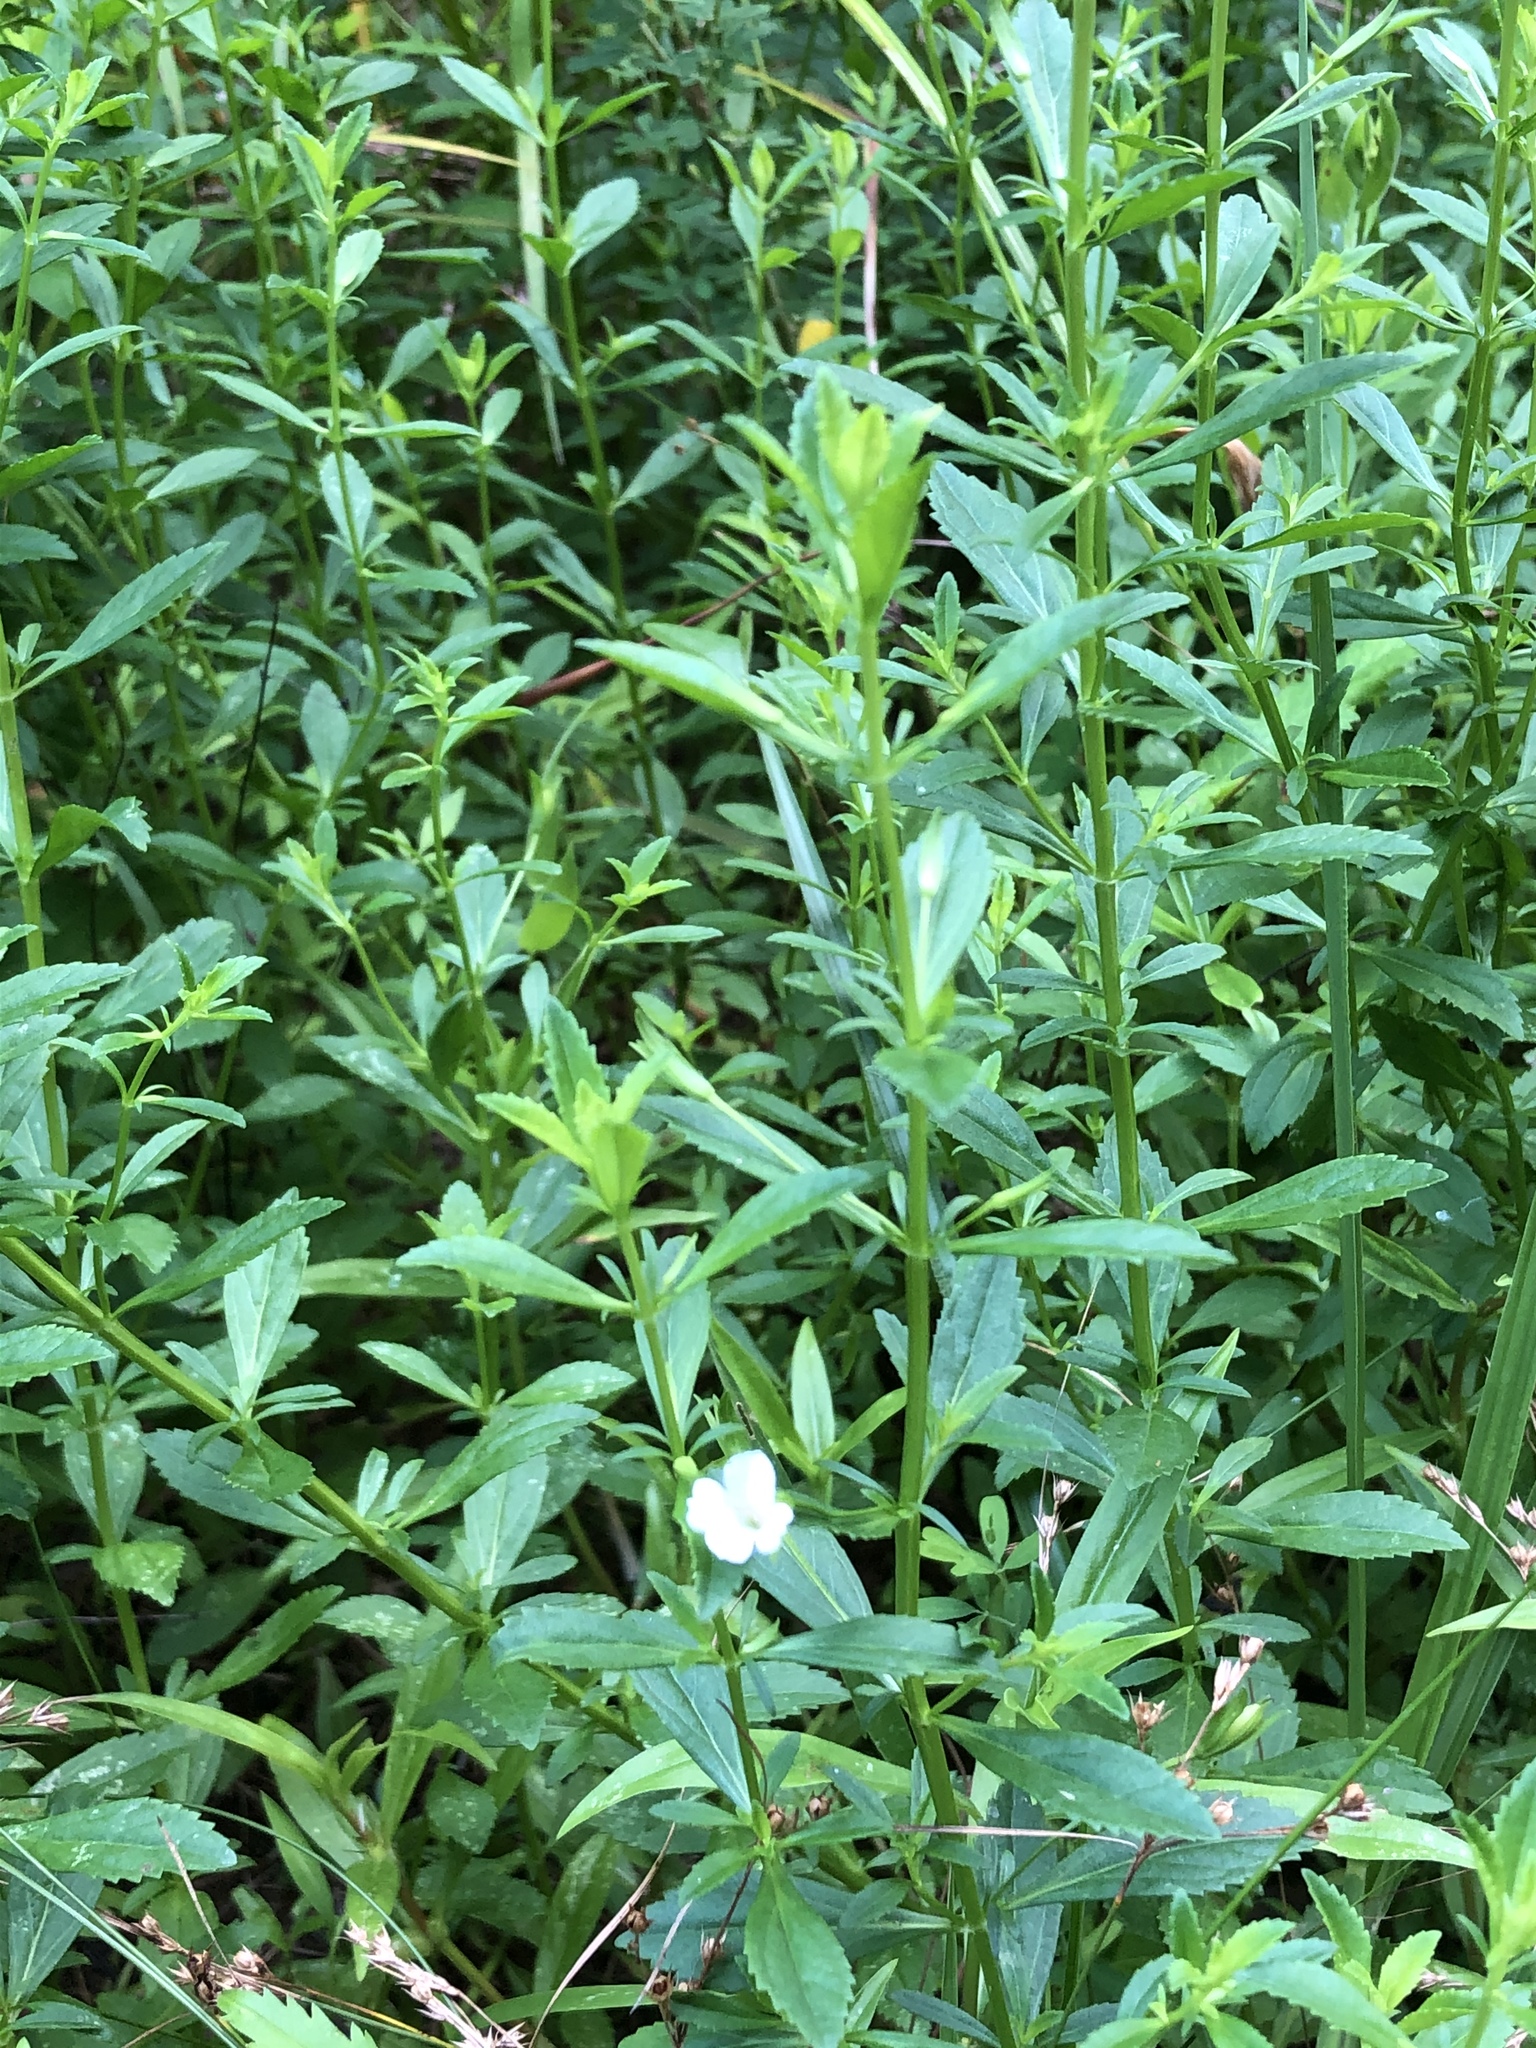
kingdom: Plantae
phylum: Tracheophyta
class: Magnoliopsida
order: Lamiales
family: Plantaginaceae
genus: Mecardonia
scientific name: Mecardonia acuminata
